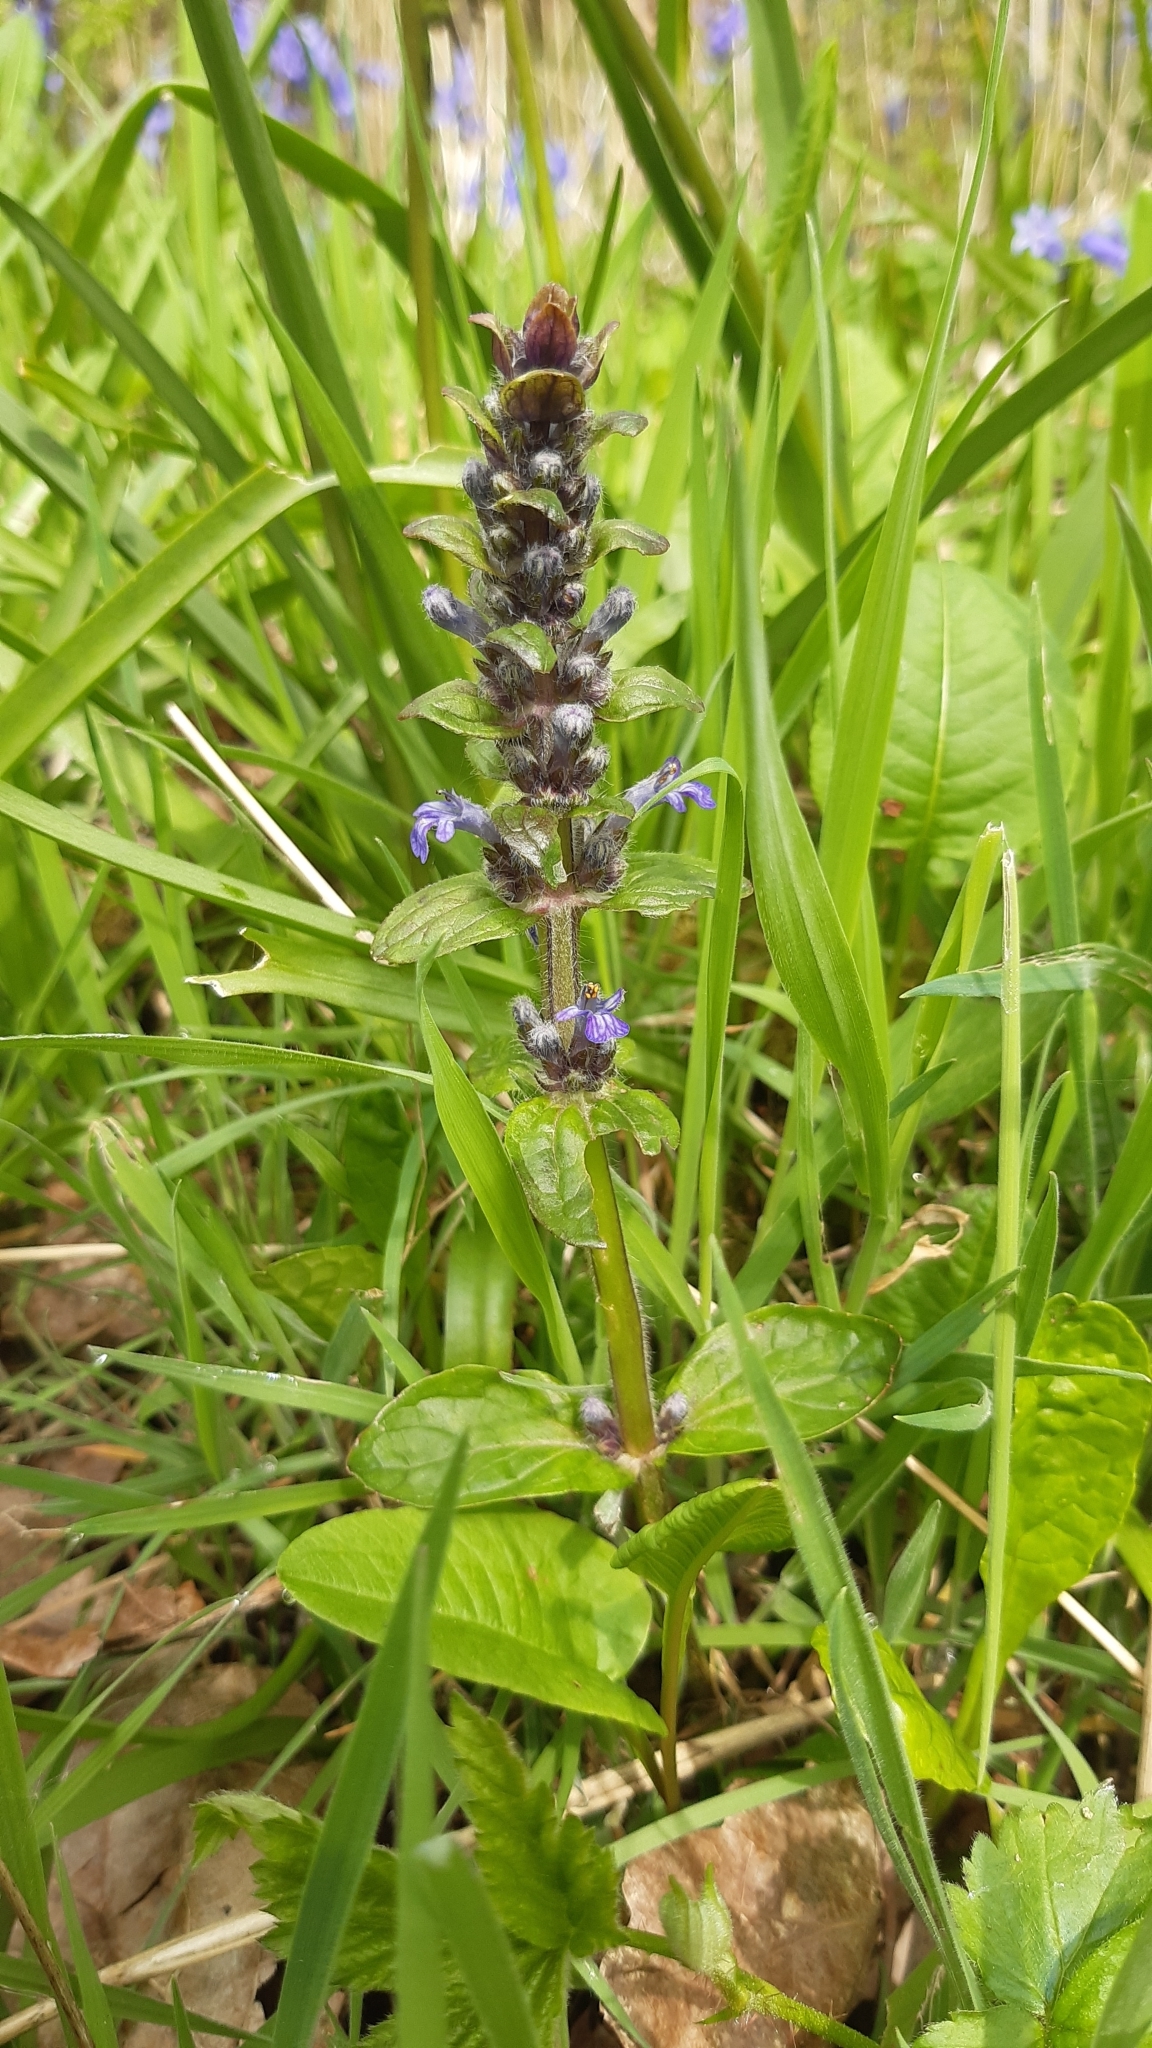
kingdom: Plantae
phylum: Tracheophyta
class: Magnoliopsida
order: Lamiales
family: Lamiaceae
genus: Ajuga
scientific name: Ajuga reptans
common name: Bugle
